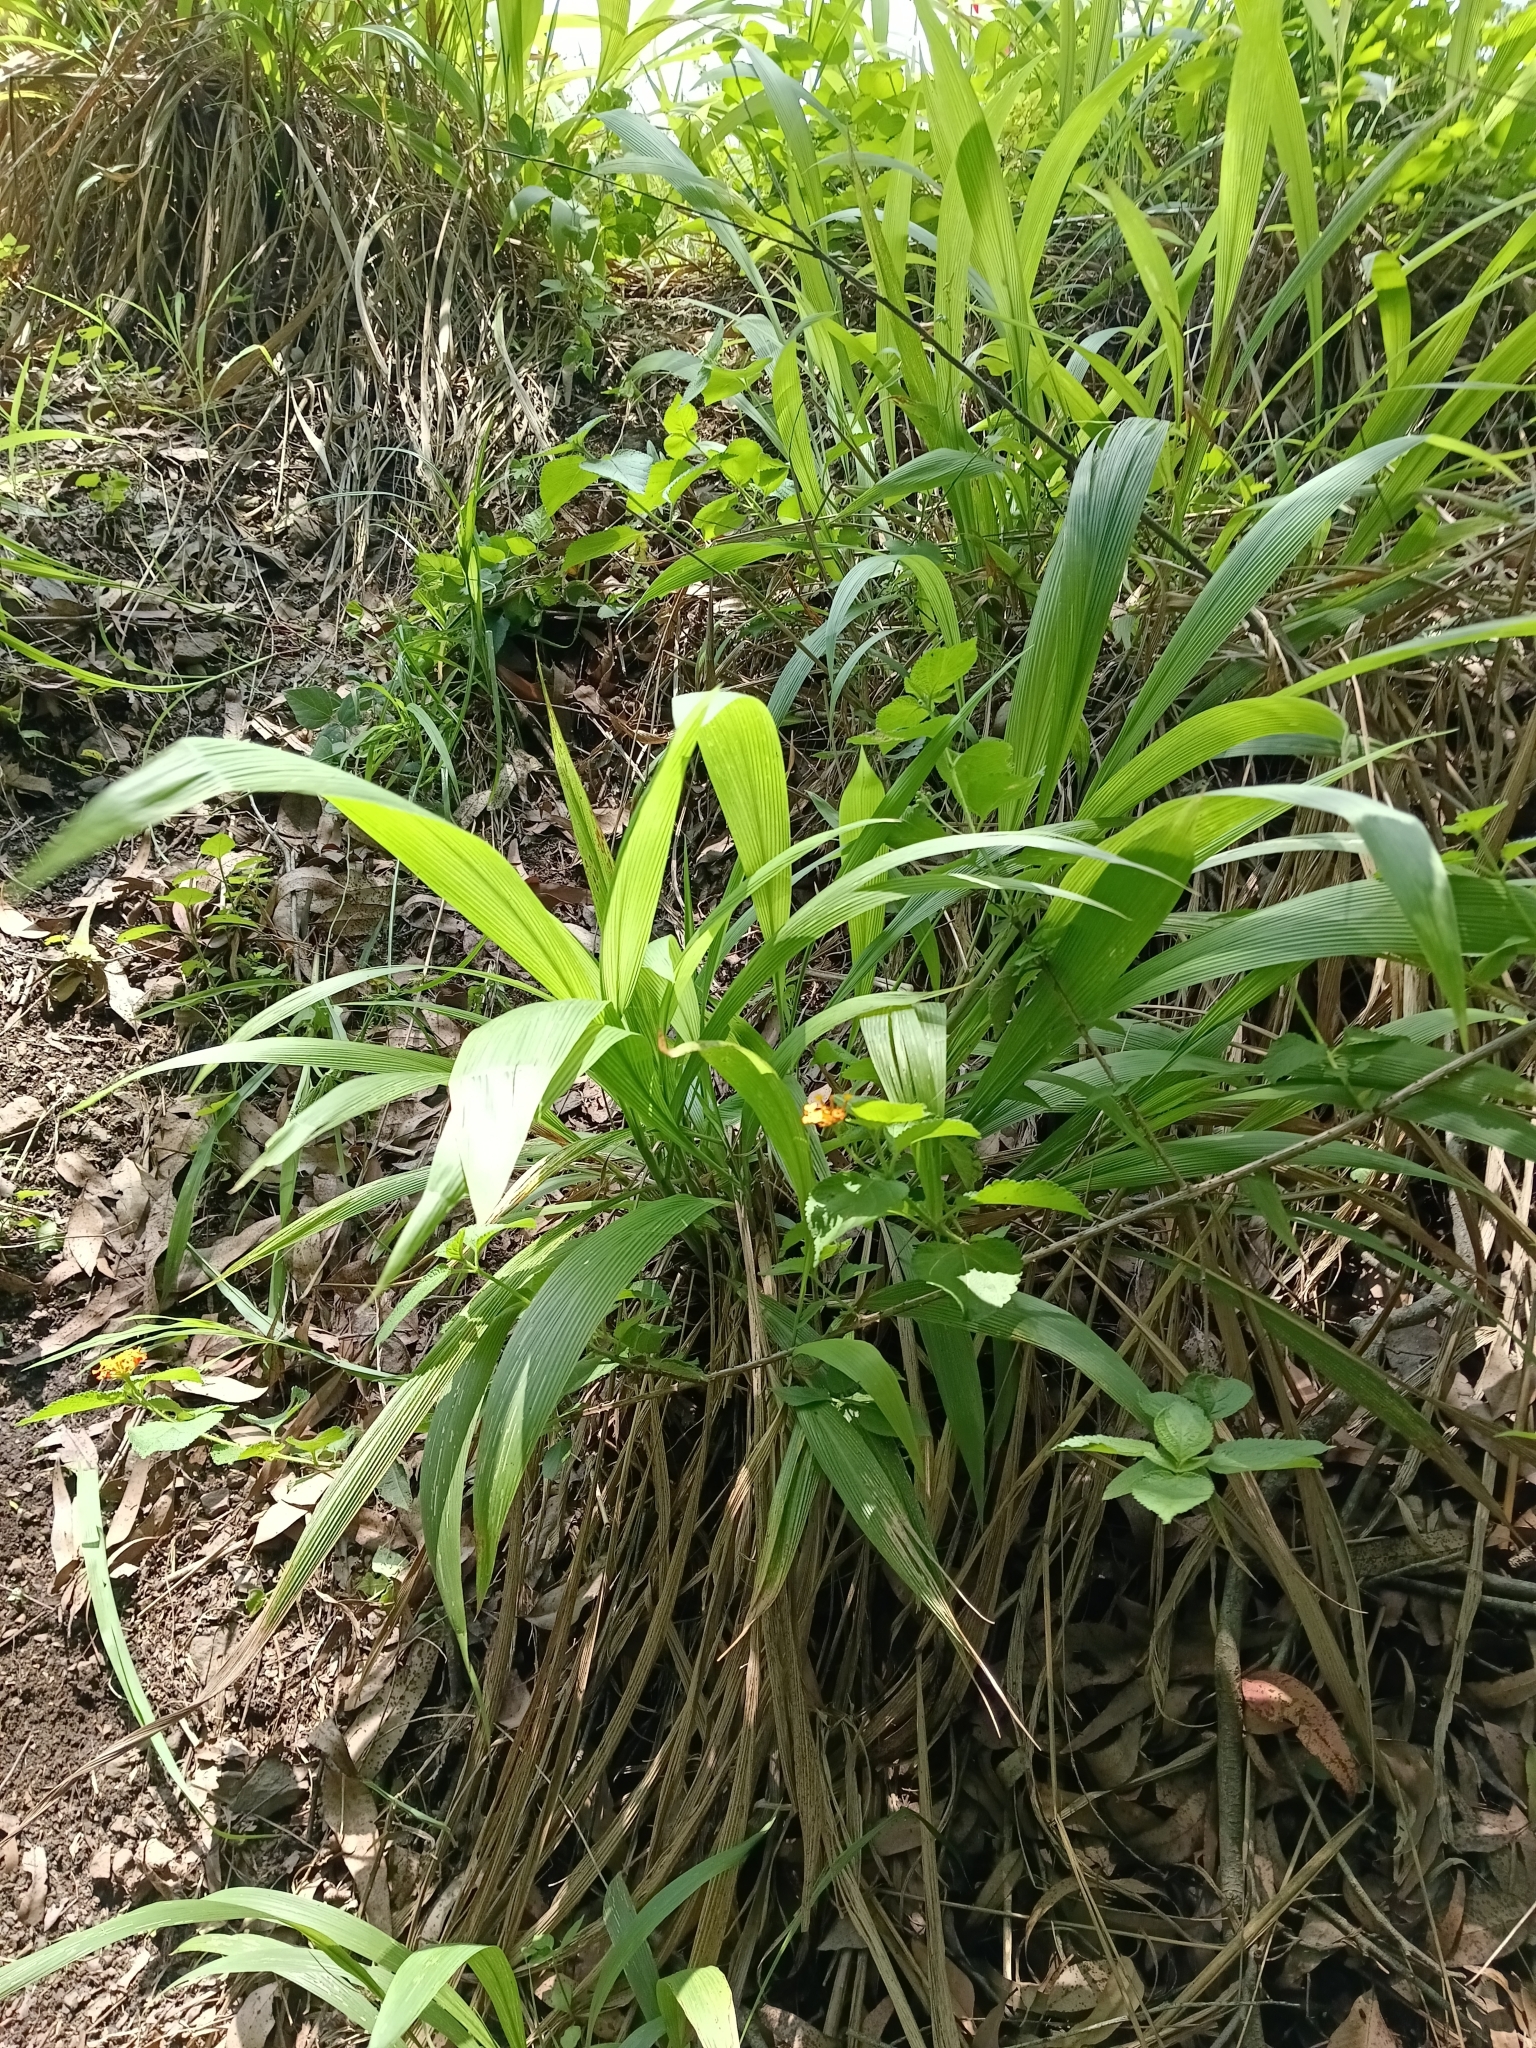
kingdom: Plantae
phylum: Tracheophyta
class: Liliopsida
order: Poales
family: Poaceae
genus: Setaria
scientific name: Setaria megaphylla
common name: Bigleaf bristlegrass
